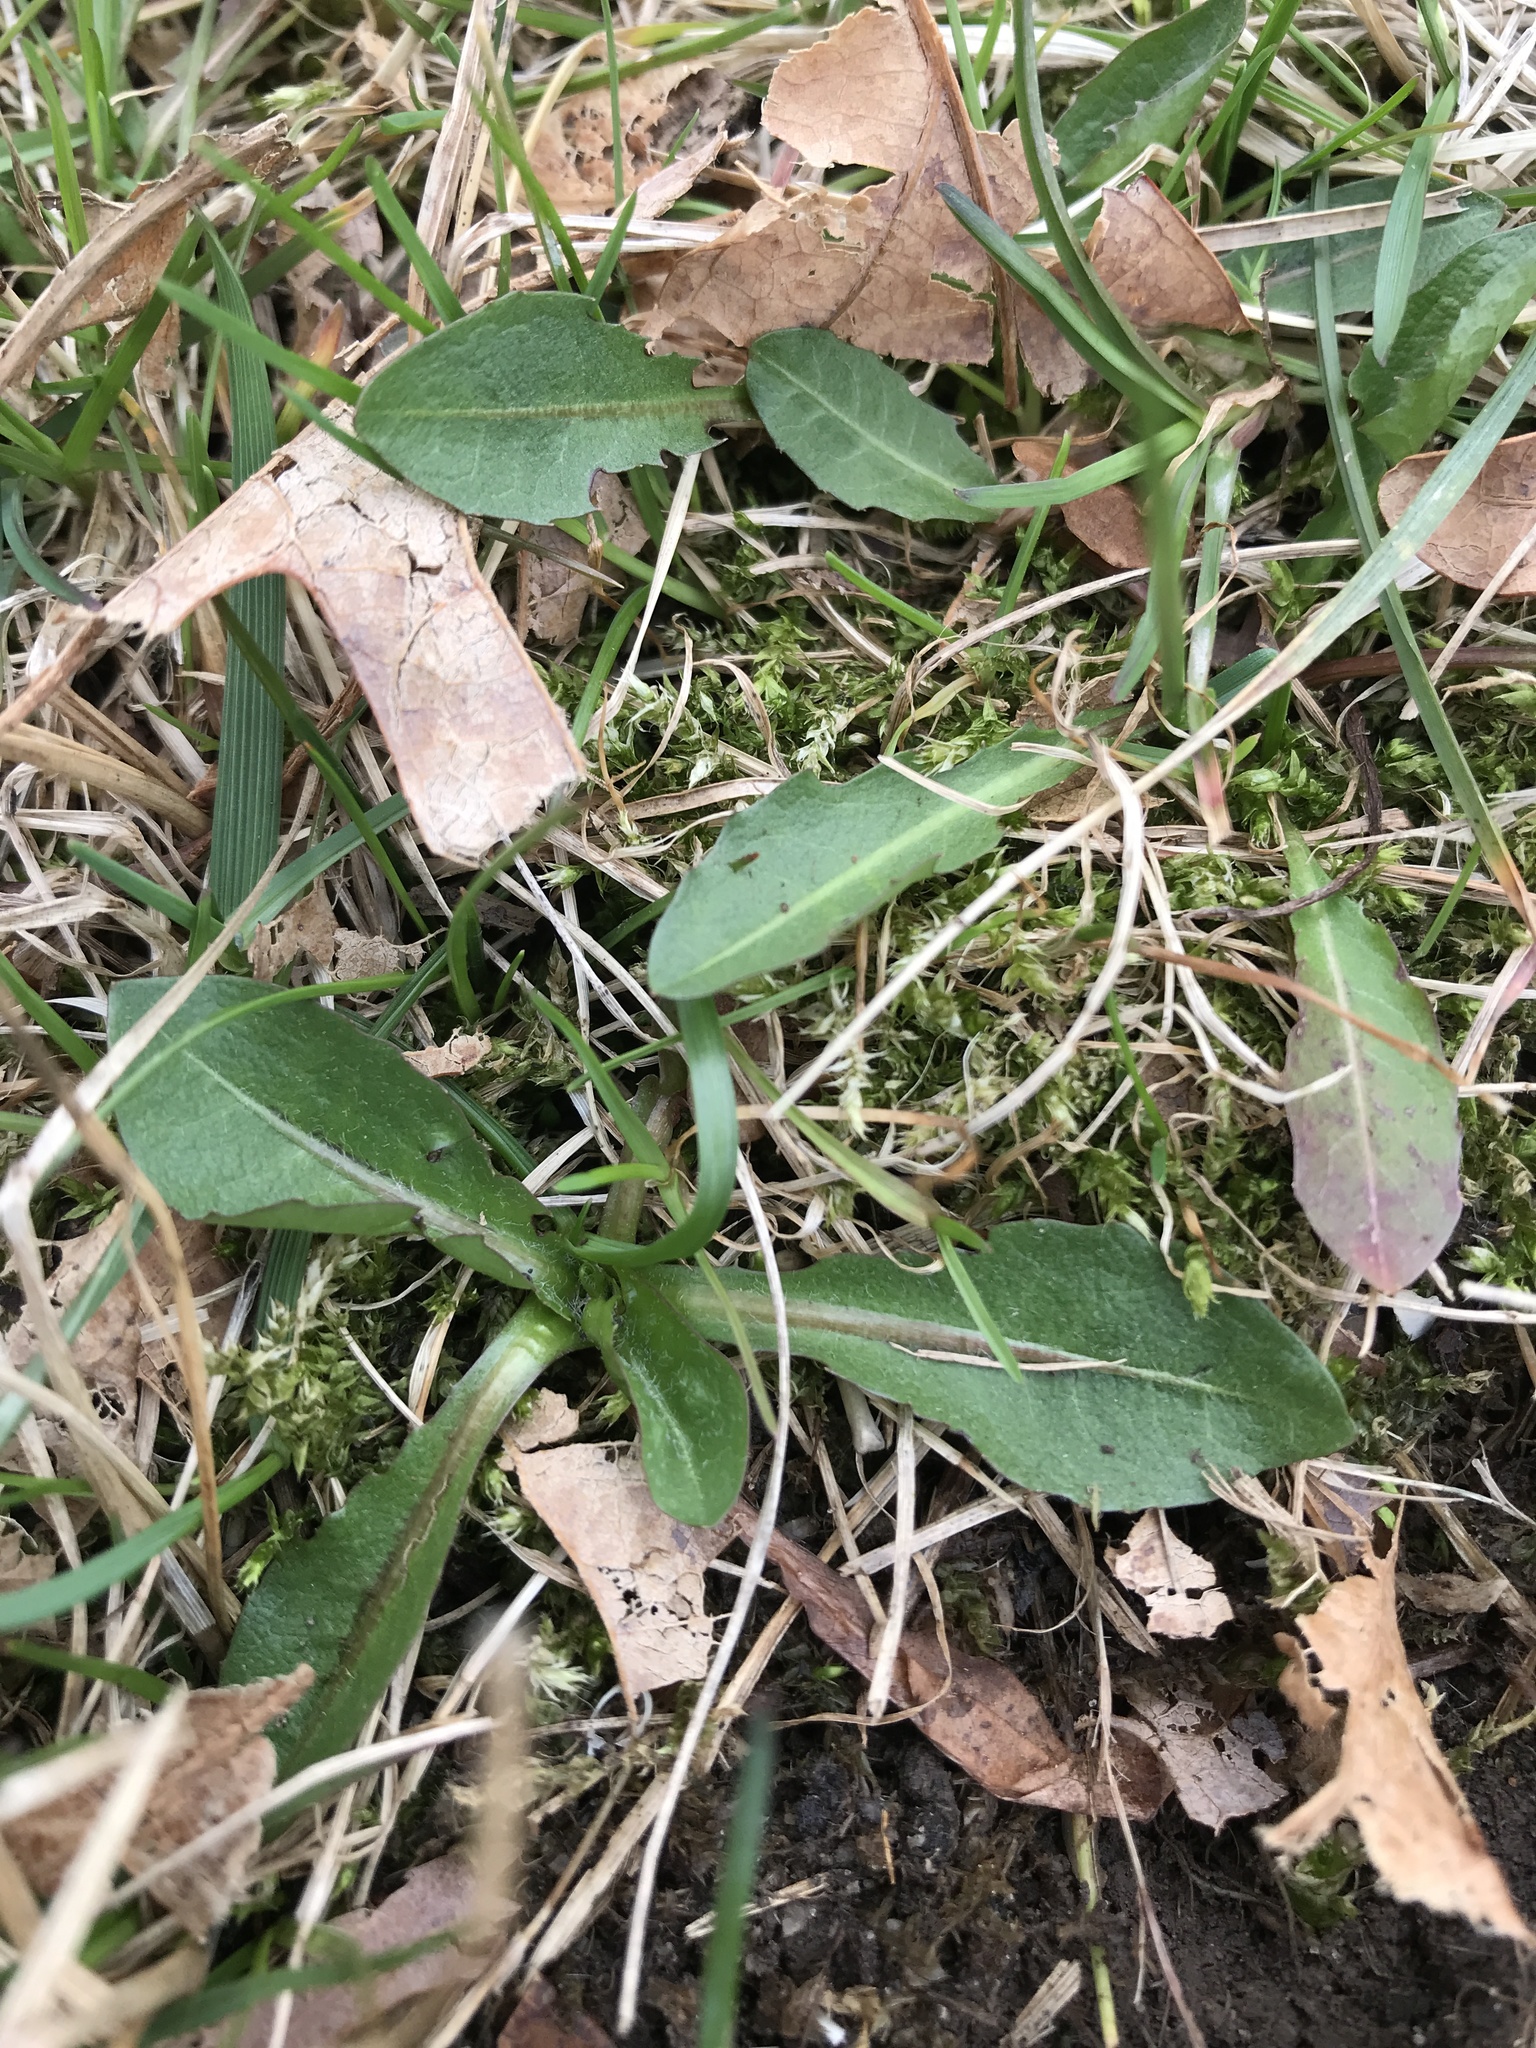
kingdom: Plantae
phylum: Tracheophyta
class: Magnoliopsida
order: Asterales
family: Asteraceae
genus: Taraxacum
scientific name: Taraxacum officinale
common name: Common dandelion
